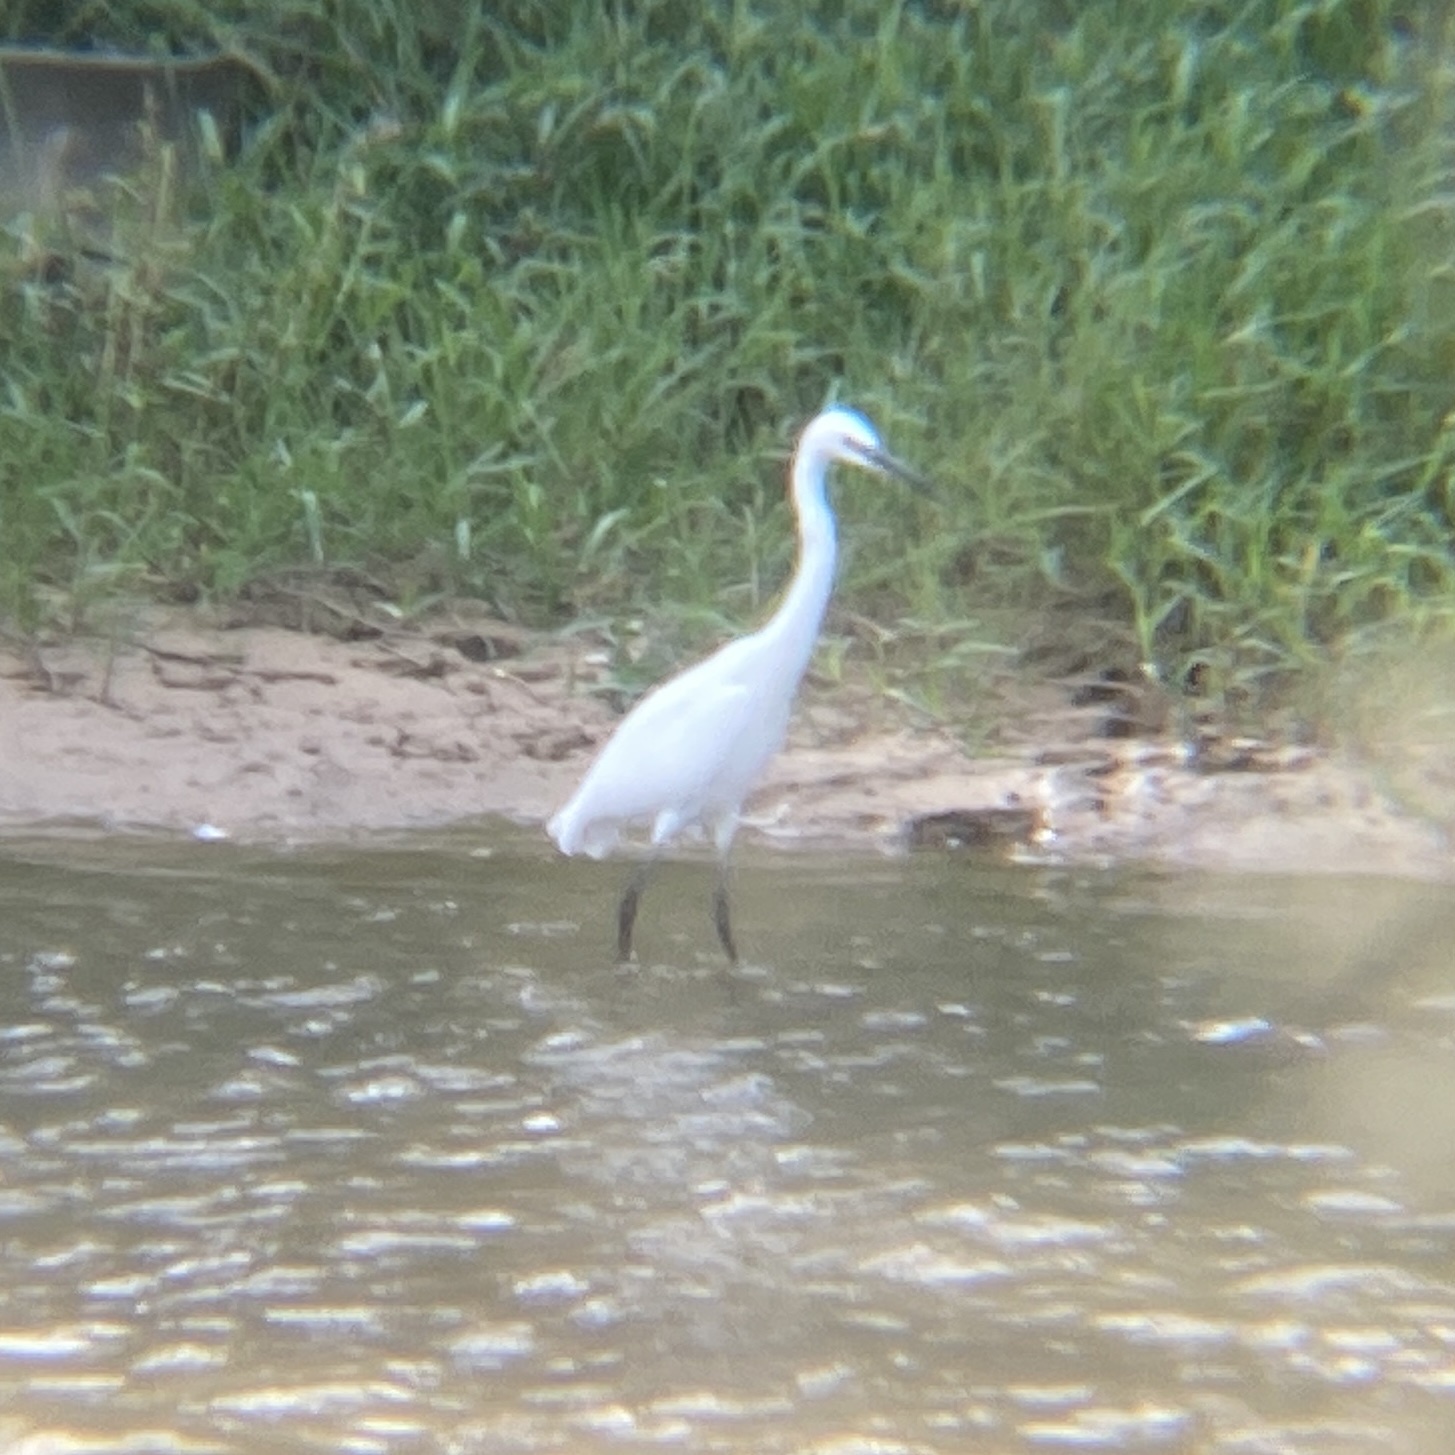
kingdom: Animalia
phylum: Chordata
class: Aves
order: Pelecaniformes
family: Ardeidae
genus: Egretta
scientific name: Egretta garzetta
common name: Little egret
